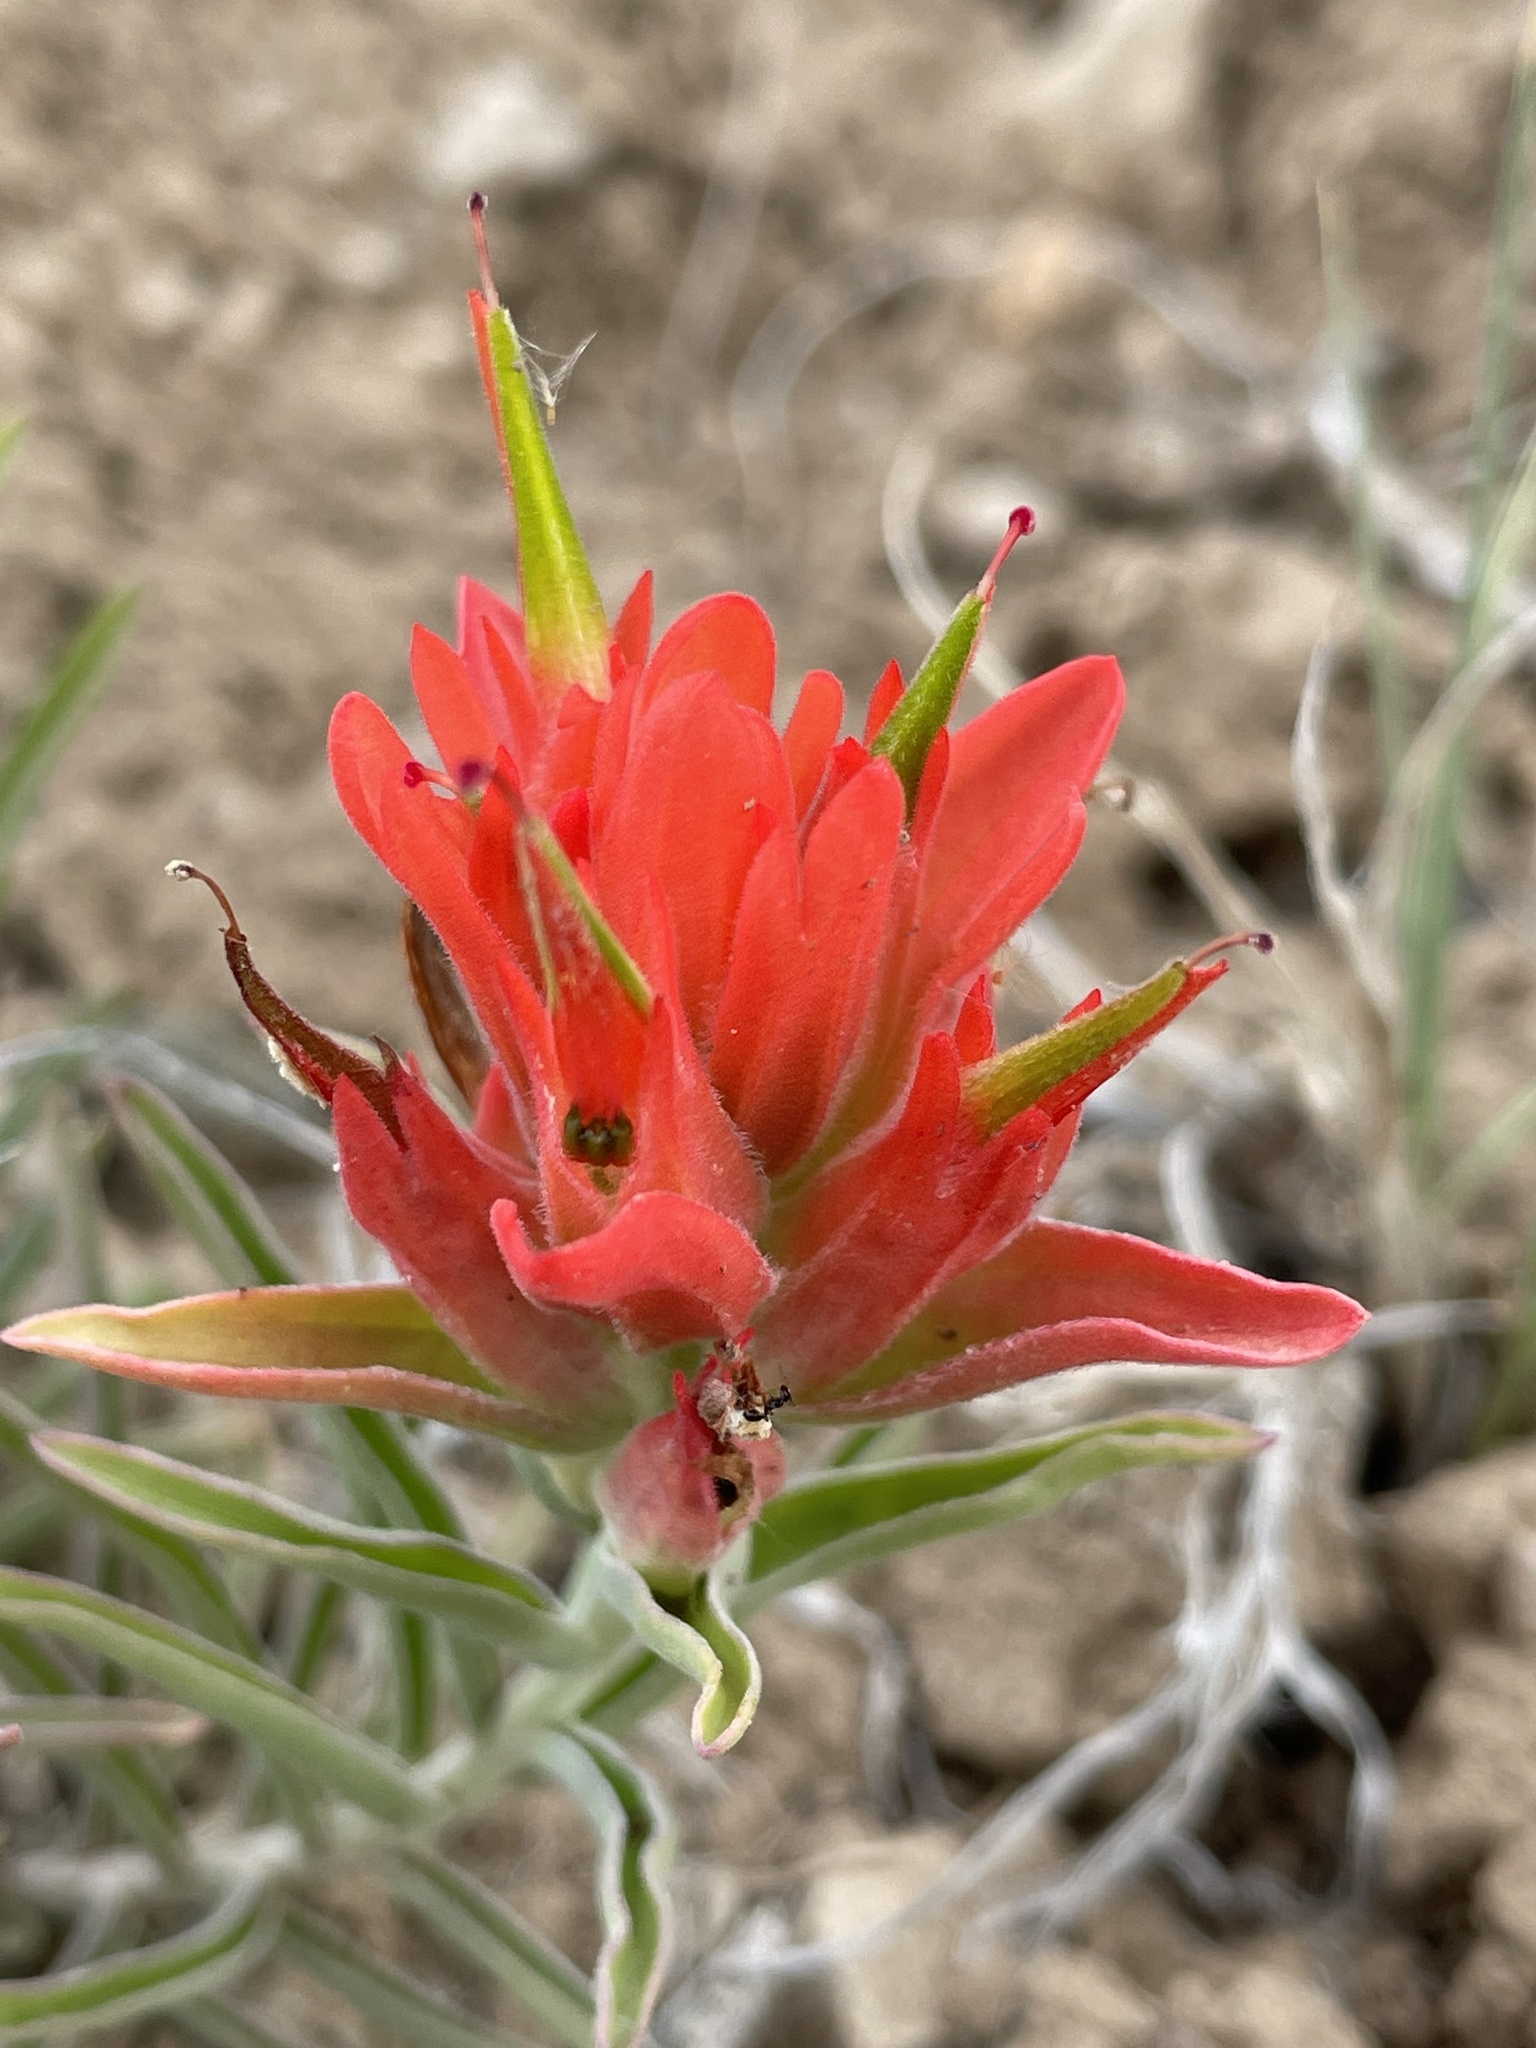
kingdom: Plantae
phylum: Tracheophyta
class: Magnoliopsida
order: Lamiales
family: Orobanchaceae
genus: Castilleja
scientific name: Castilleja integra
